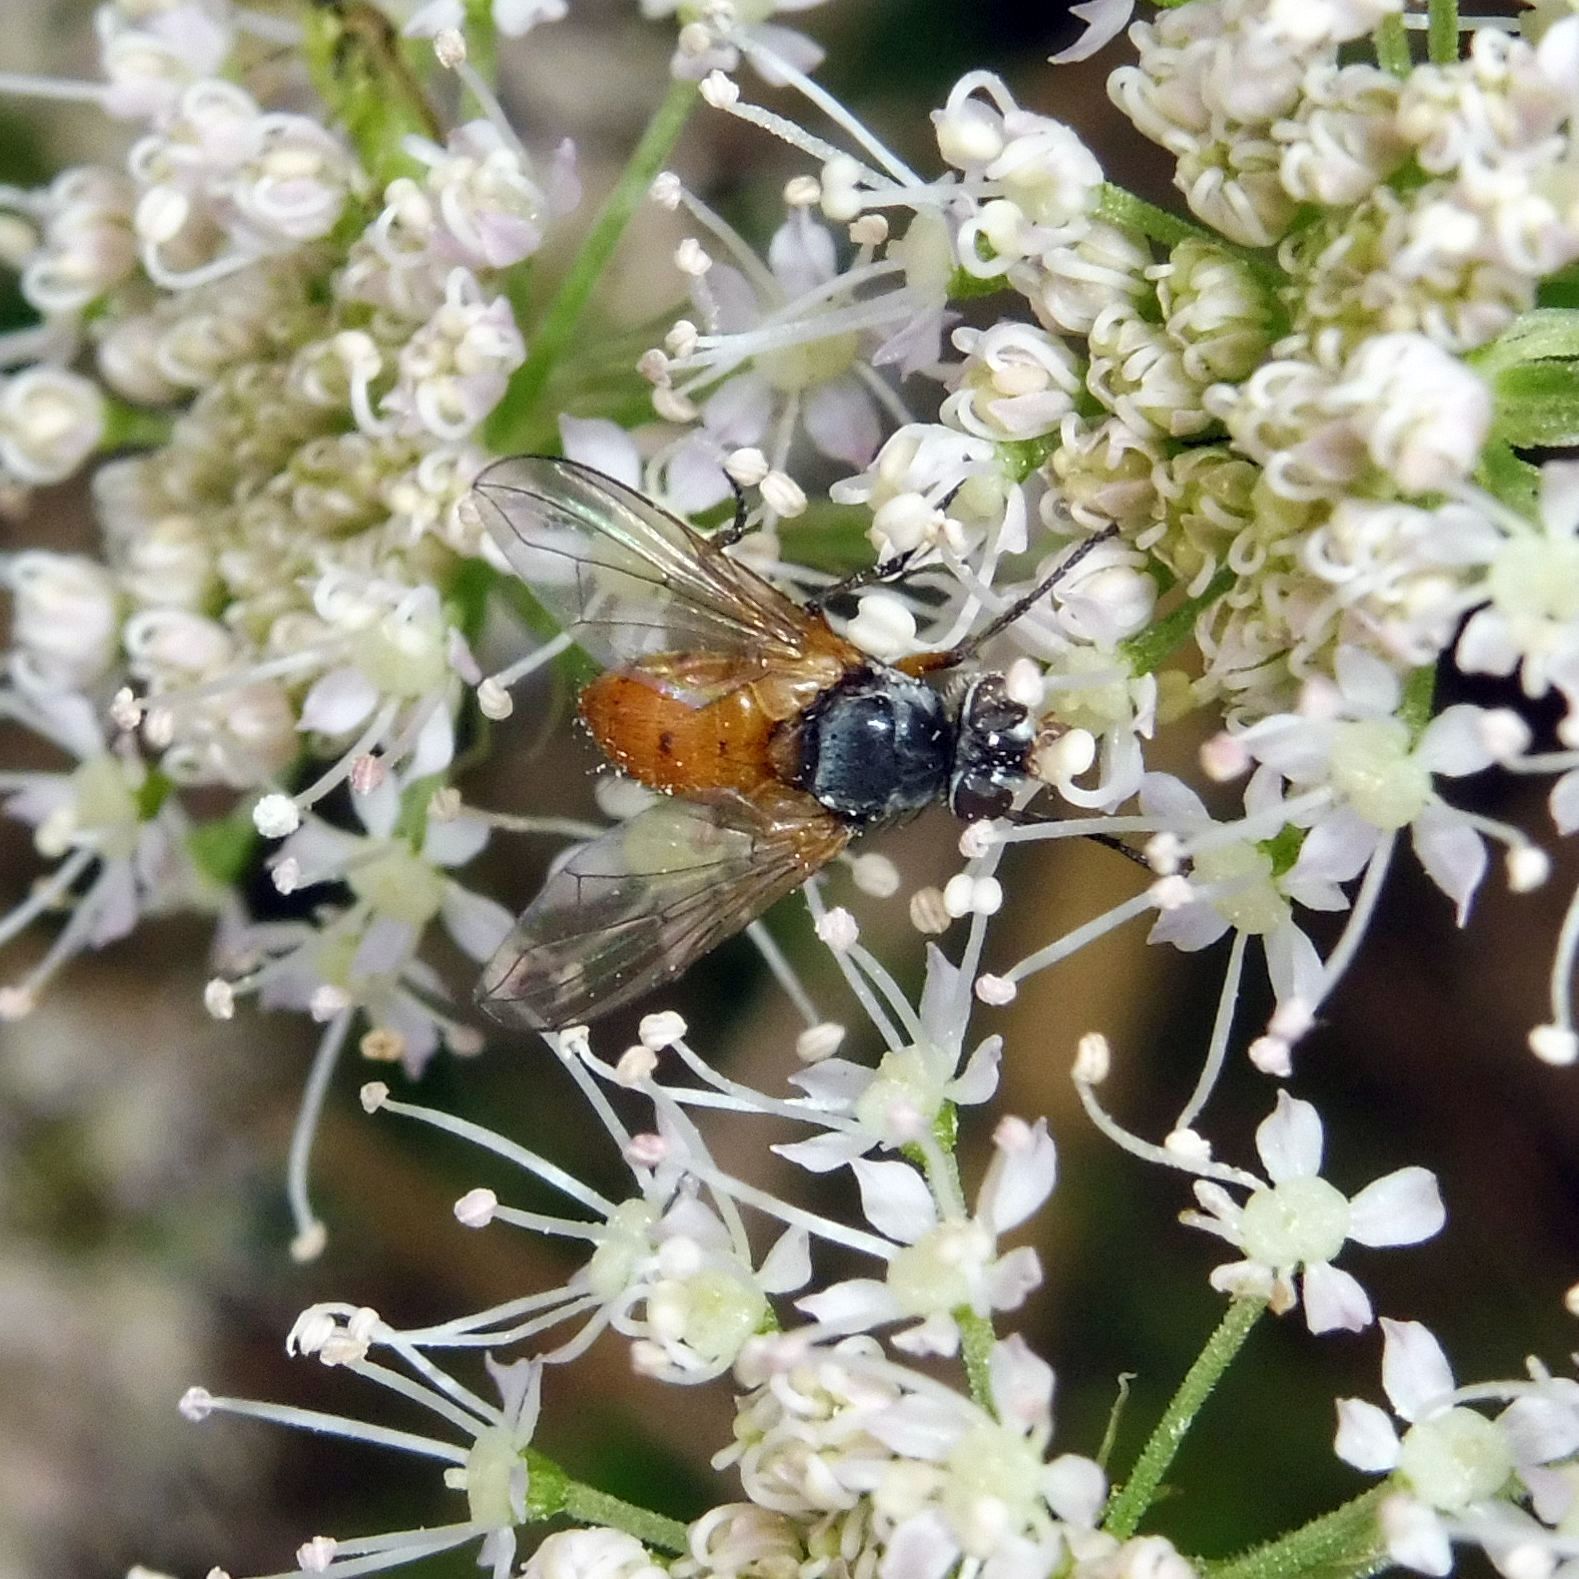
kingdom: Animalia
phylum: Arthropoda
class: Insecta
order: Diptera
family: Tachinidae
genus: Subclytia
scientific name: Subclytia rotundiventris
